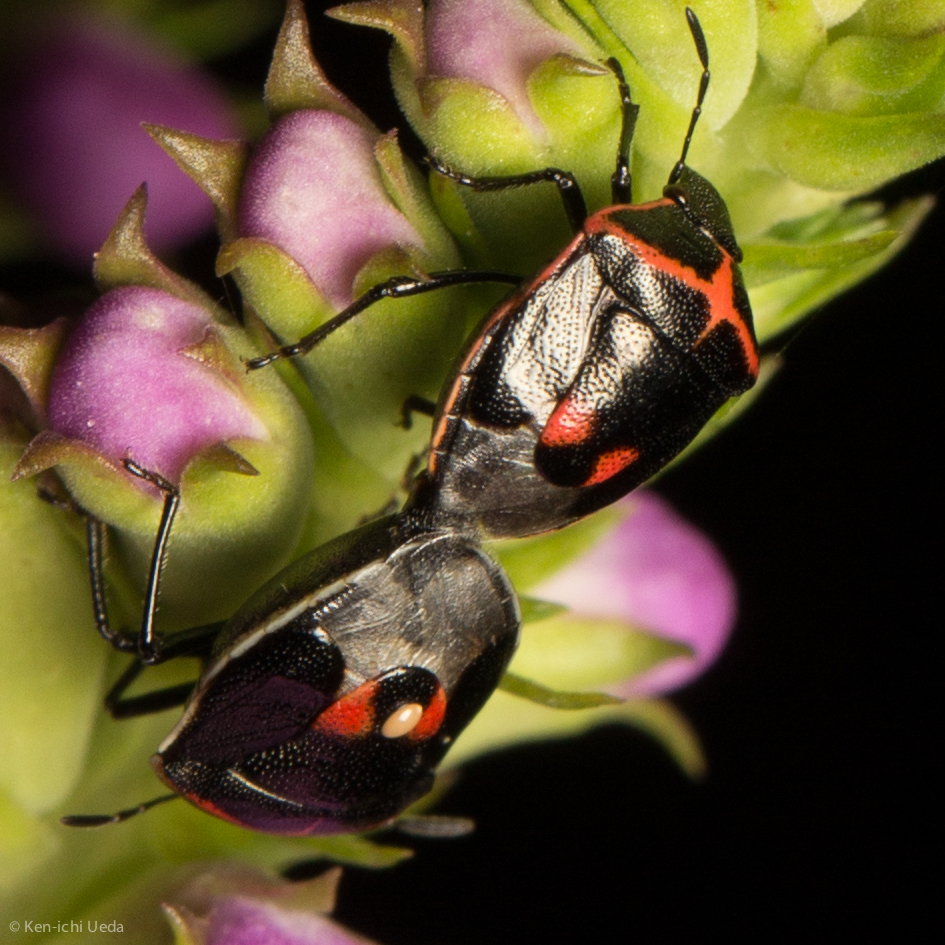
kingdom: Animalia
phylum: Arthropoda
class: Insecta
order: Hemiptera
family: Pentatomidae
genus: Cosmopepla
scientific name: Cosmopepla lintneriana
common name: Twice-stabbed stink bug
